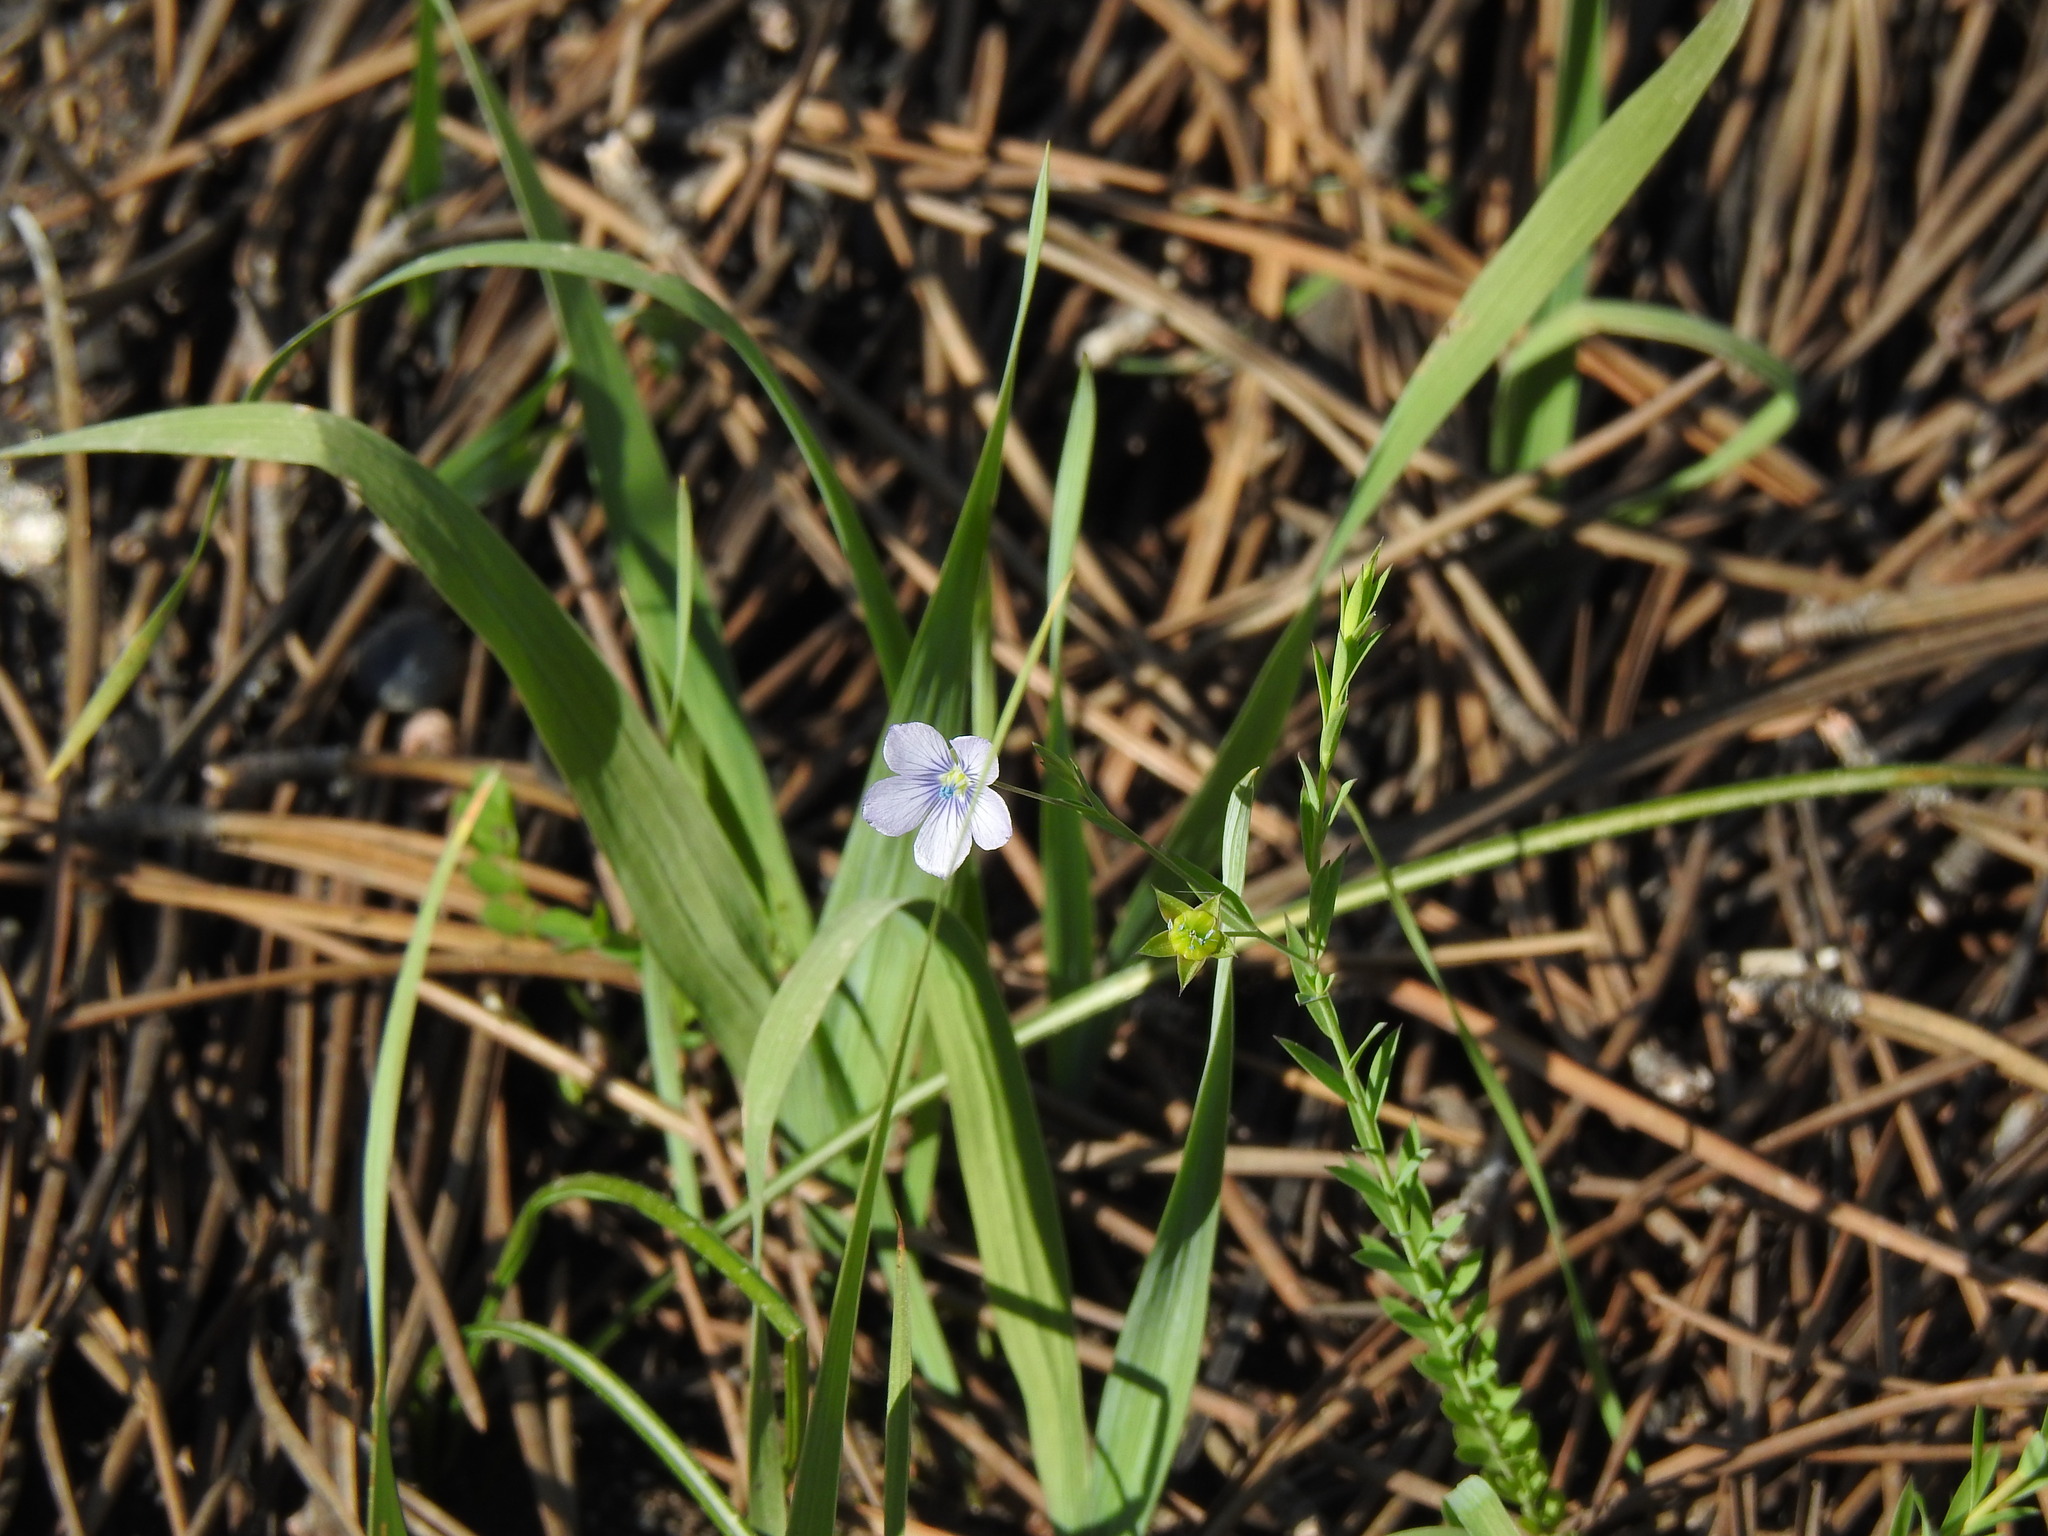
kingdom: Plantae
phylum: Tracheophyta
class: Magnoliopsida
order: Malpighiales
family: Linaceae
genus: Linum
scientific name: Linum bienne
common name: Pale flax
